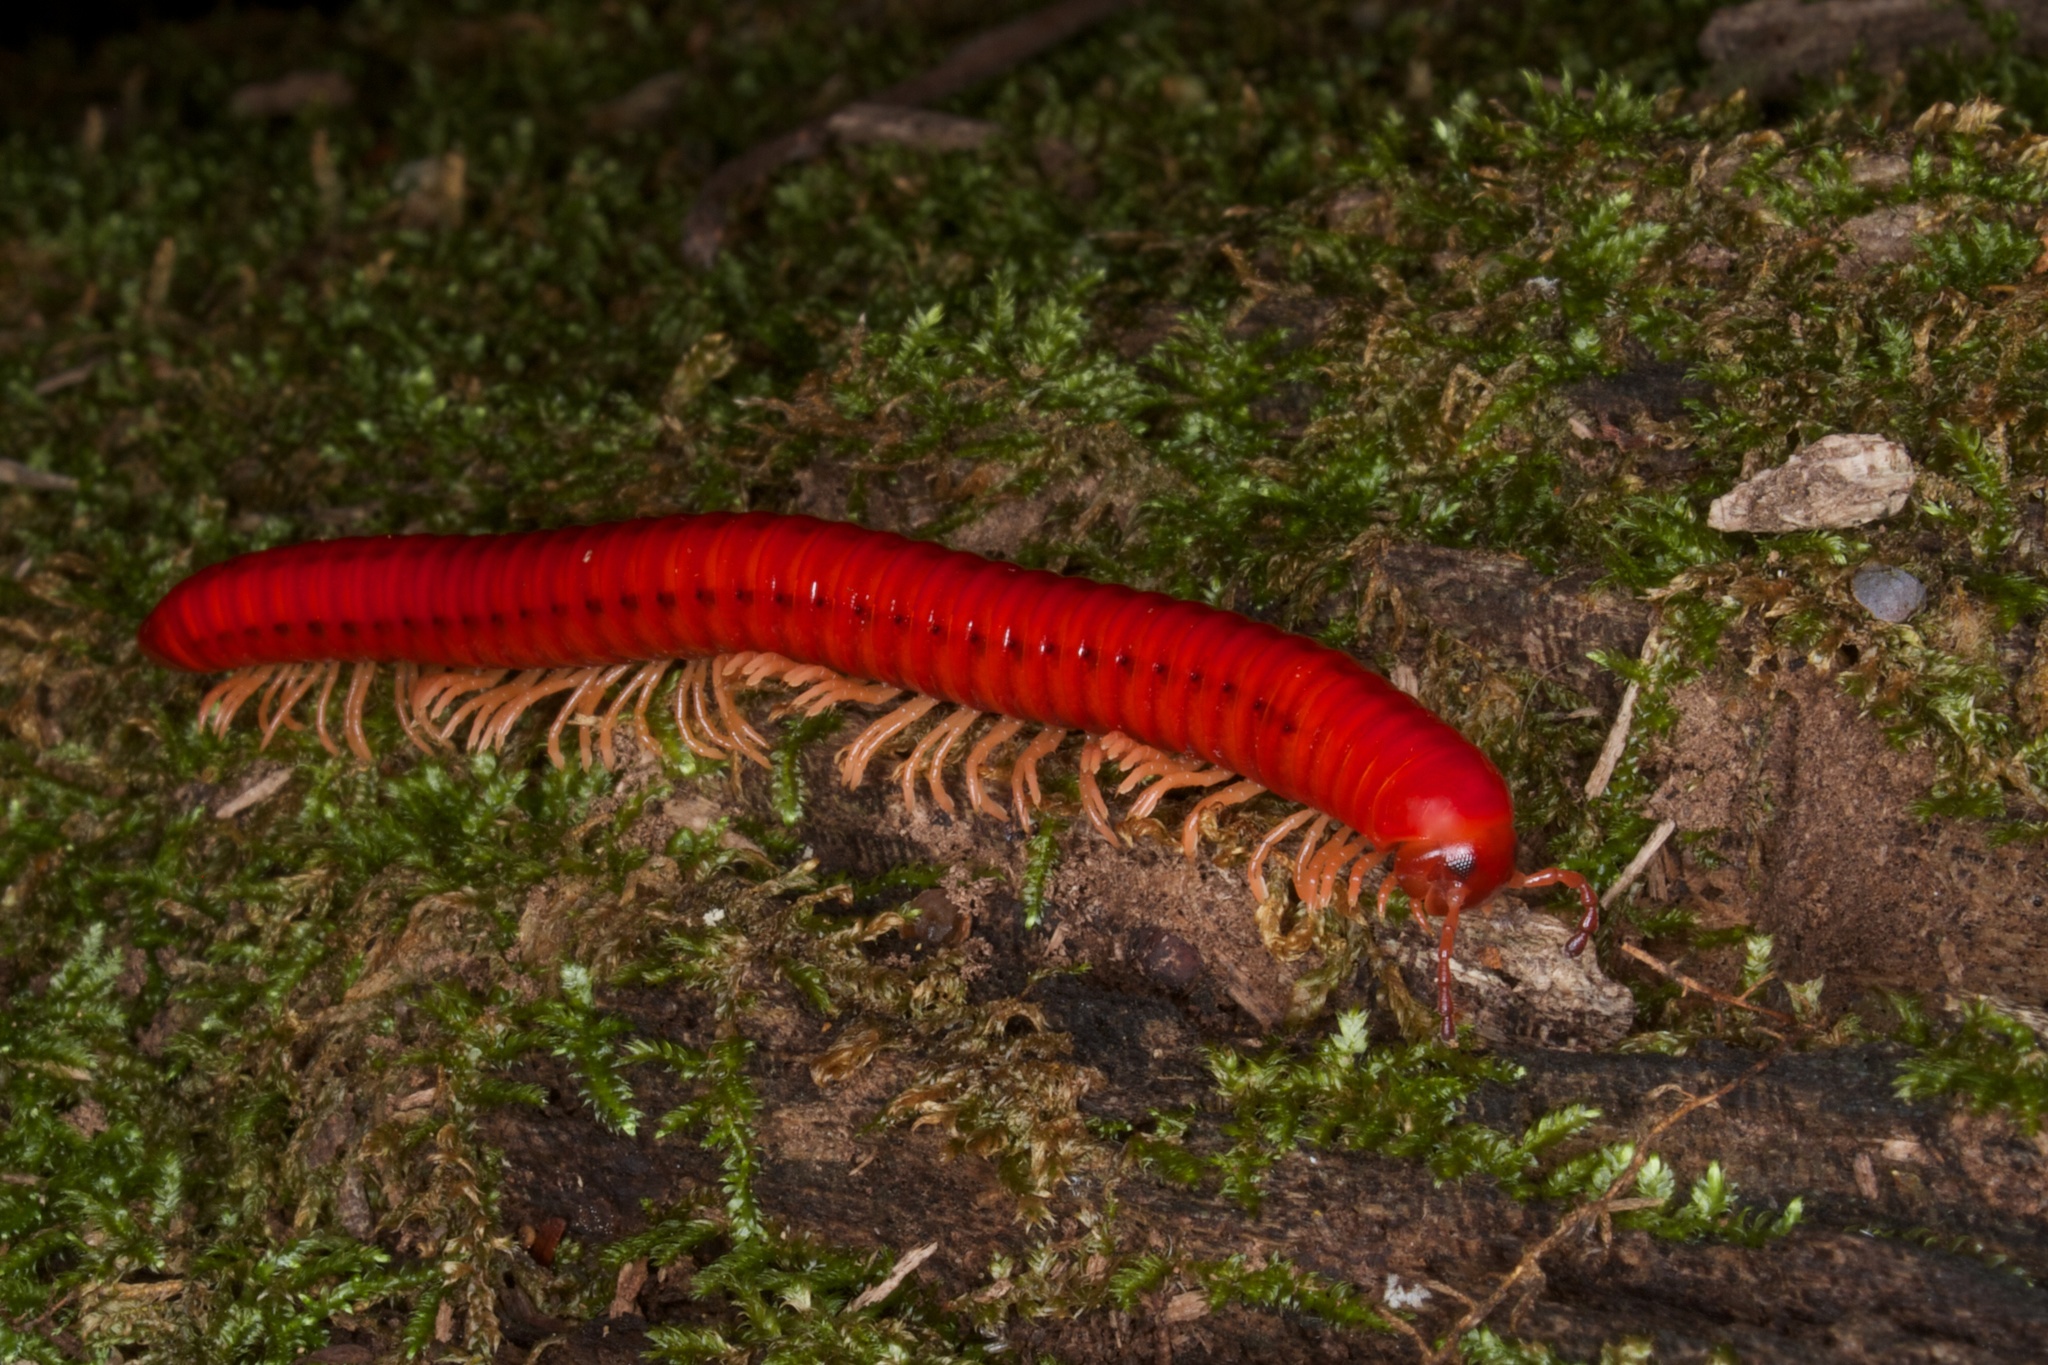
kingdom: Animalia
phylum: Arthropoda
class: Diplopoda
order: Spirobolida
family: Pachybolidae
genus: Centrobolus
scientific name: Centrobolus immaculatus
